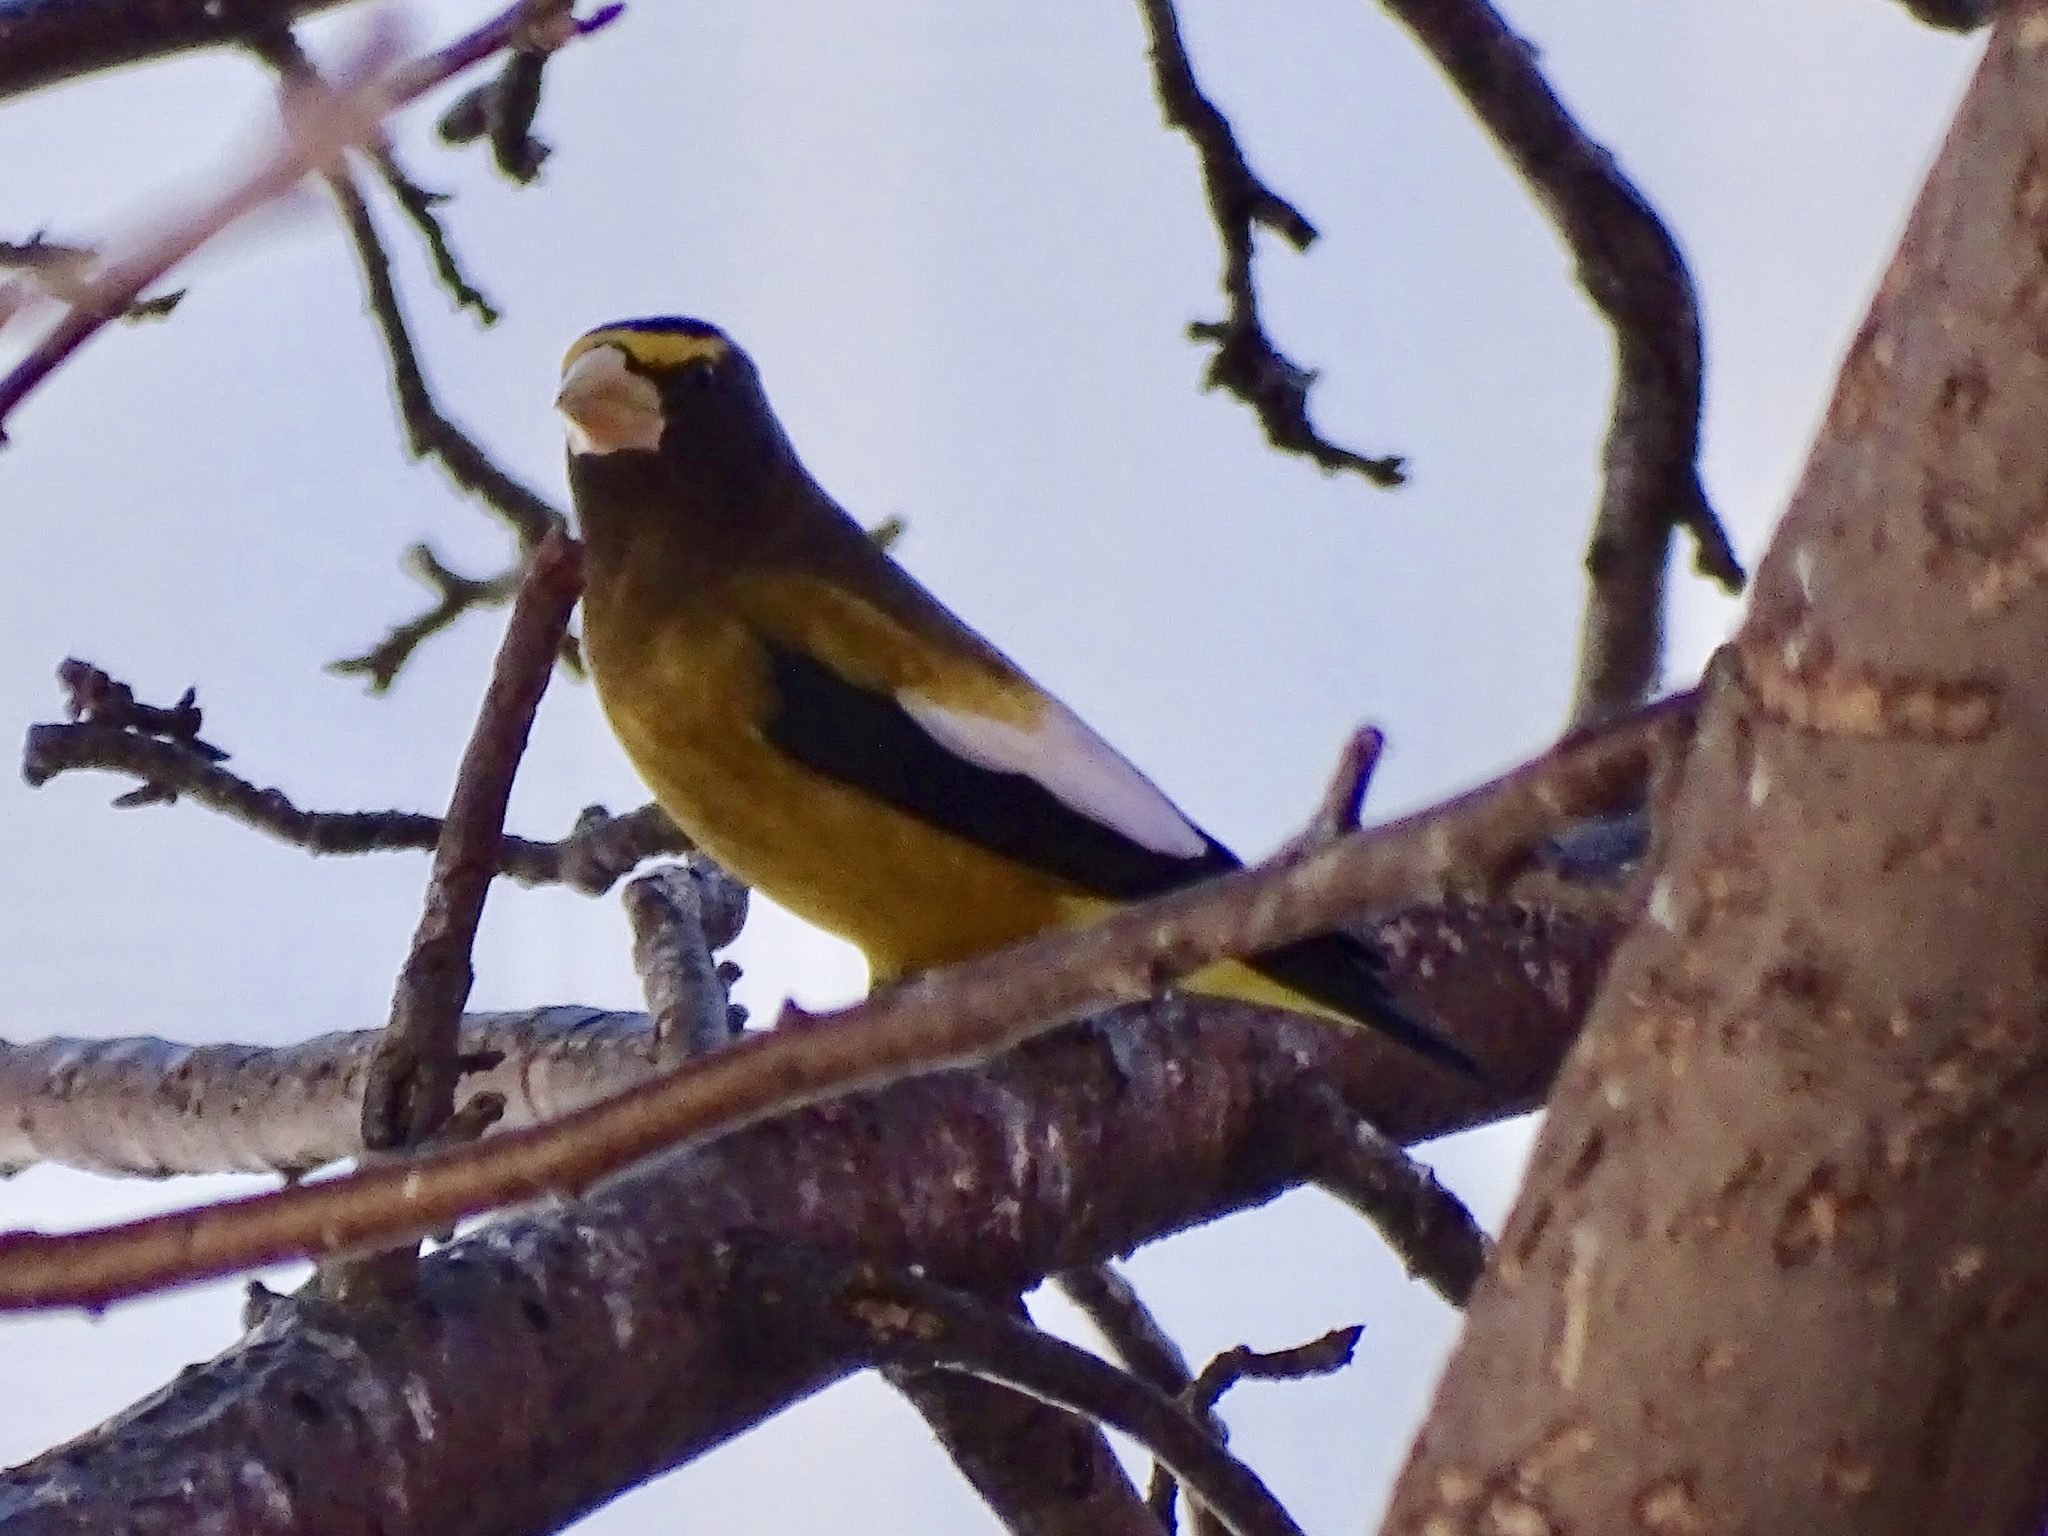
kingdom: Animalia
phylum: Chordata
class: Aves
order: Passeriformes
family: Fringillidae
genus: Hesperiphona
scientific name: Hesperiphona vespertina
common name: Evening grosbeak
